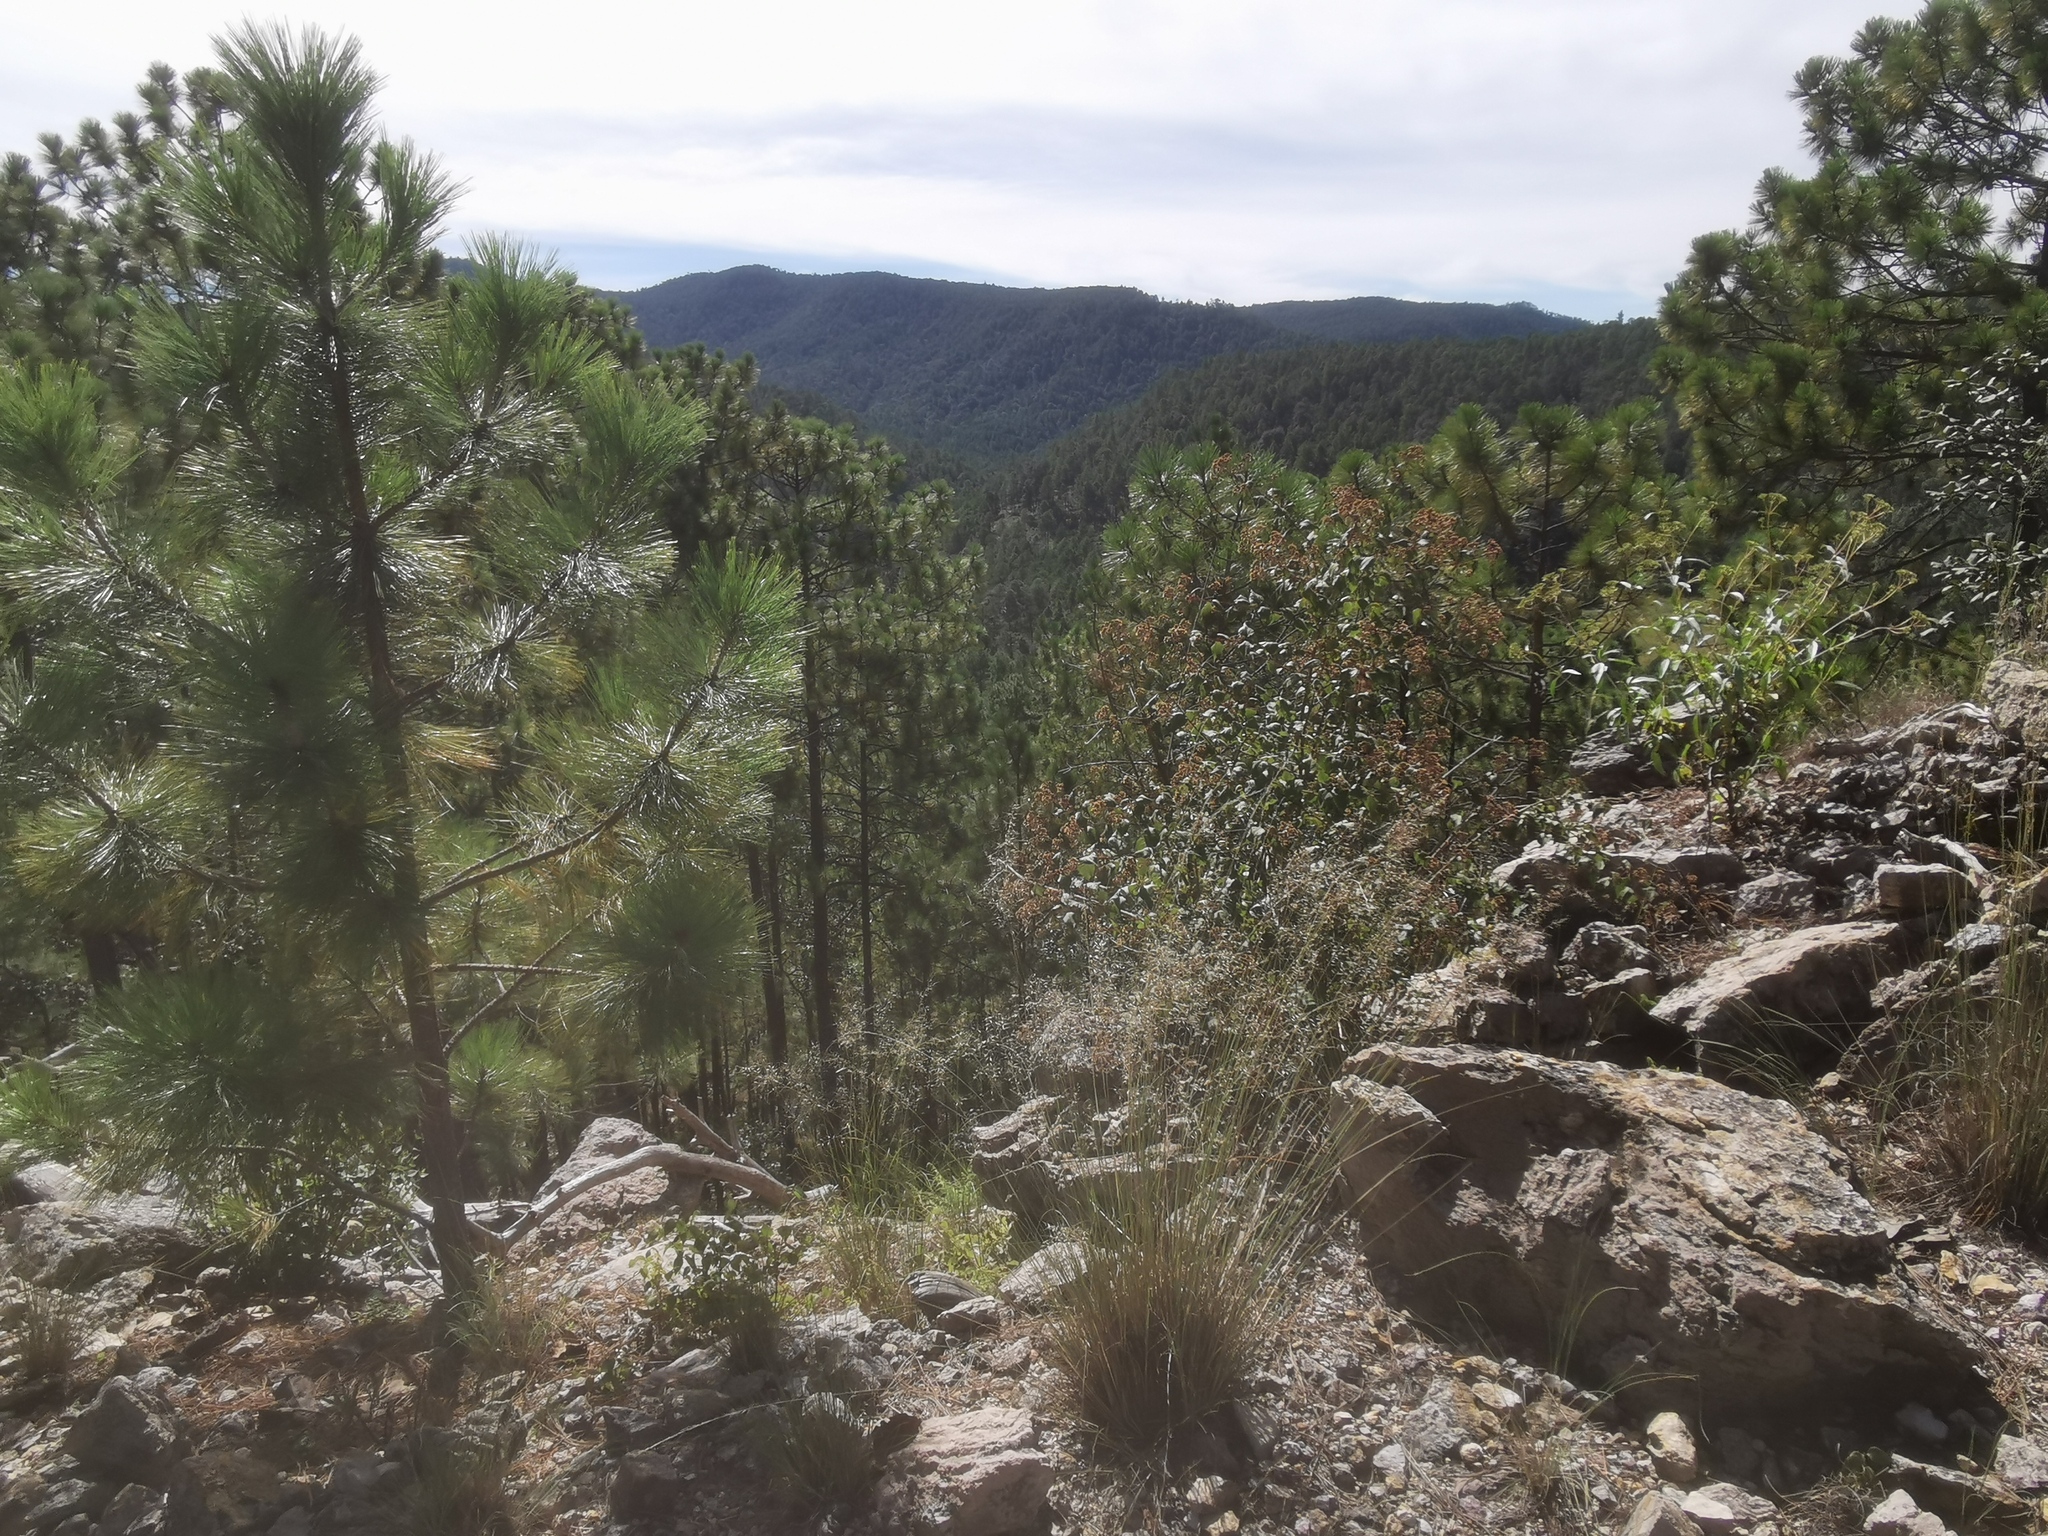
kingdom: Plantae
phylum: Tracheophyta
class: Pinopsida
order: Pinales
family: Pinaceae
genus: Pinus
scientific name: Pinus durangensis
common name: Durango pine
